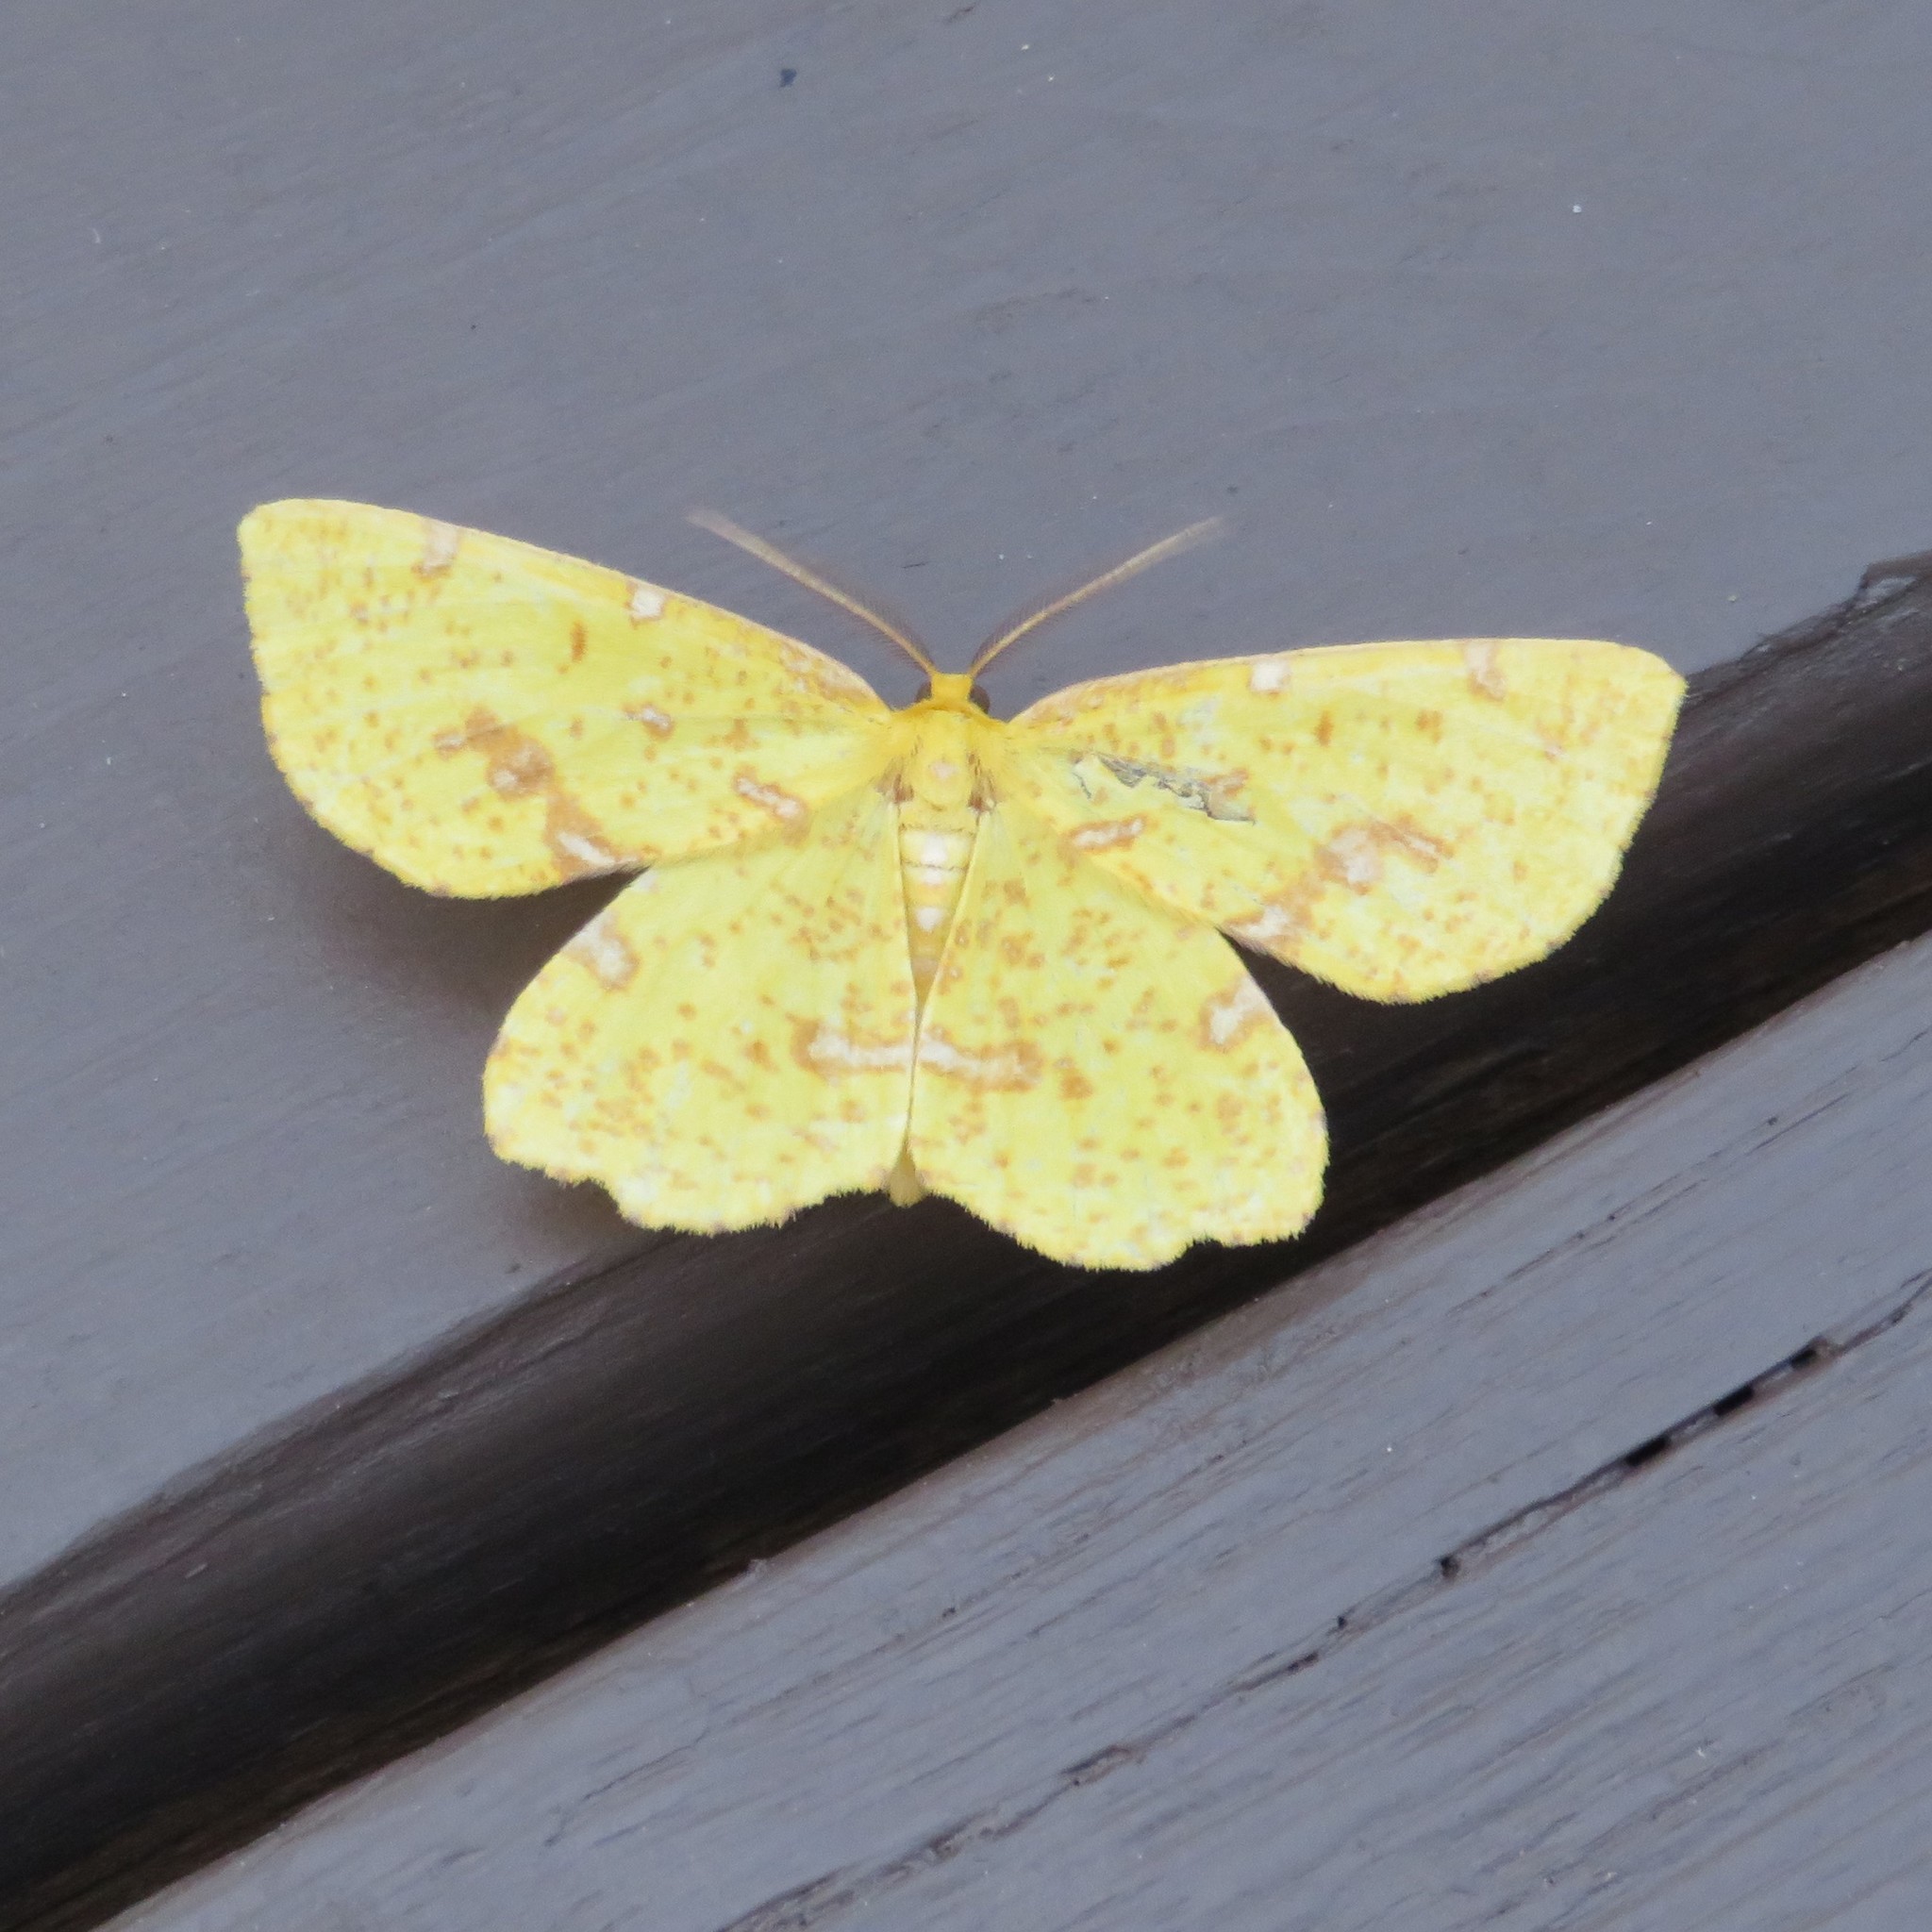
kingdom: Animalia
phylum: Arthropoda
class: Insecta
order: Lepidoptera
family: Geometridae
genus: Xanthotype
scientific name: Xanthotype
